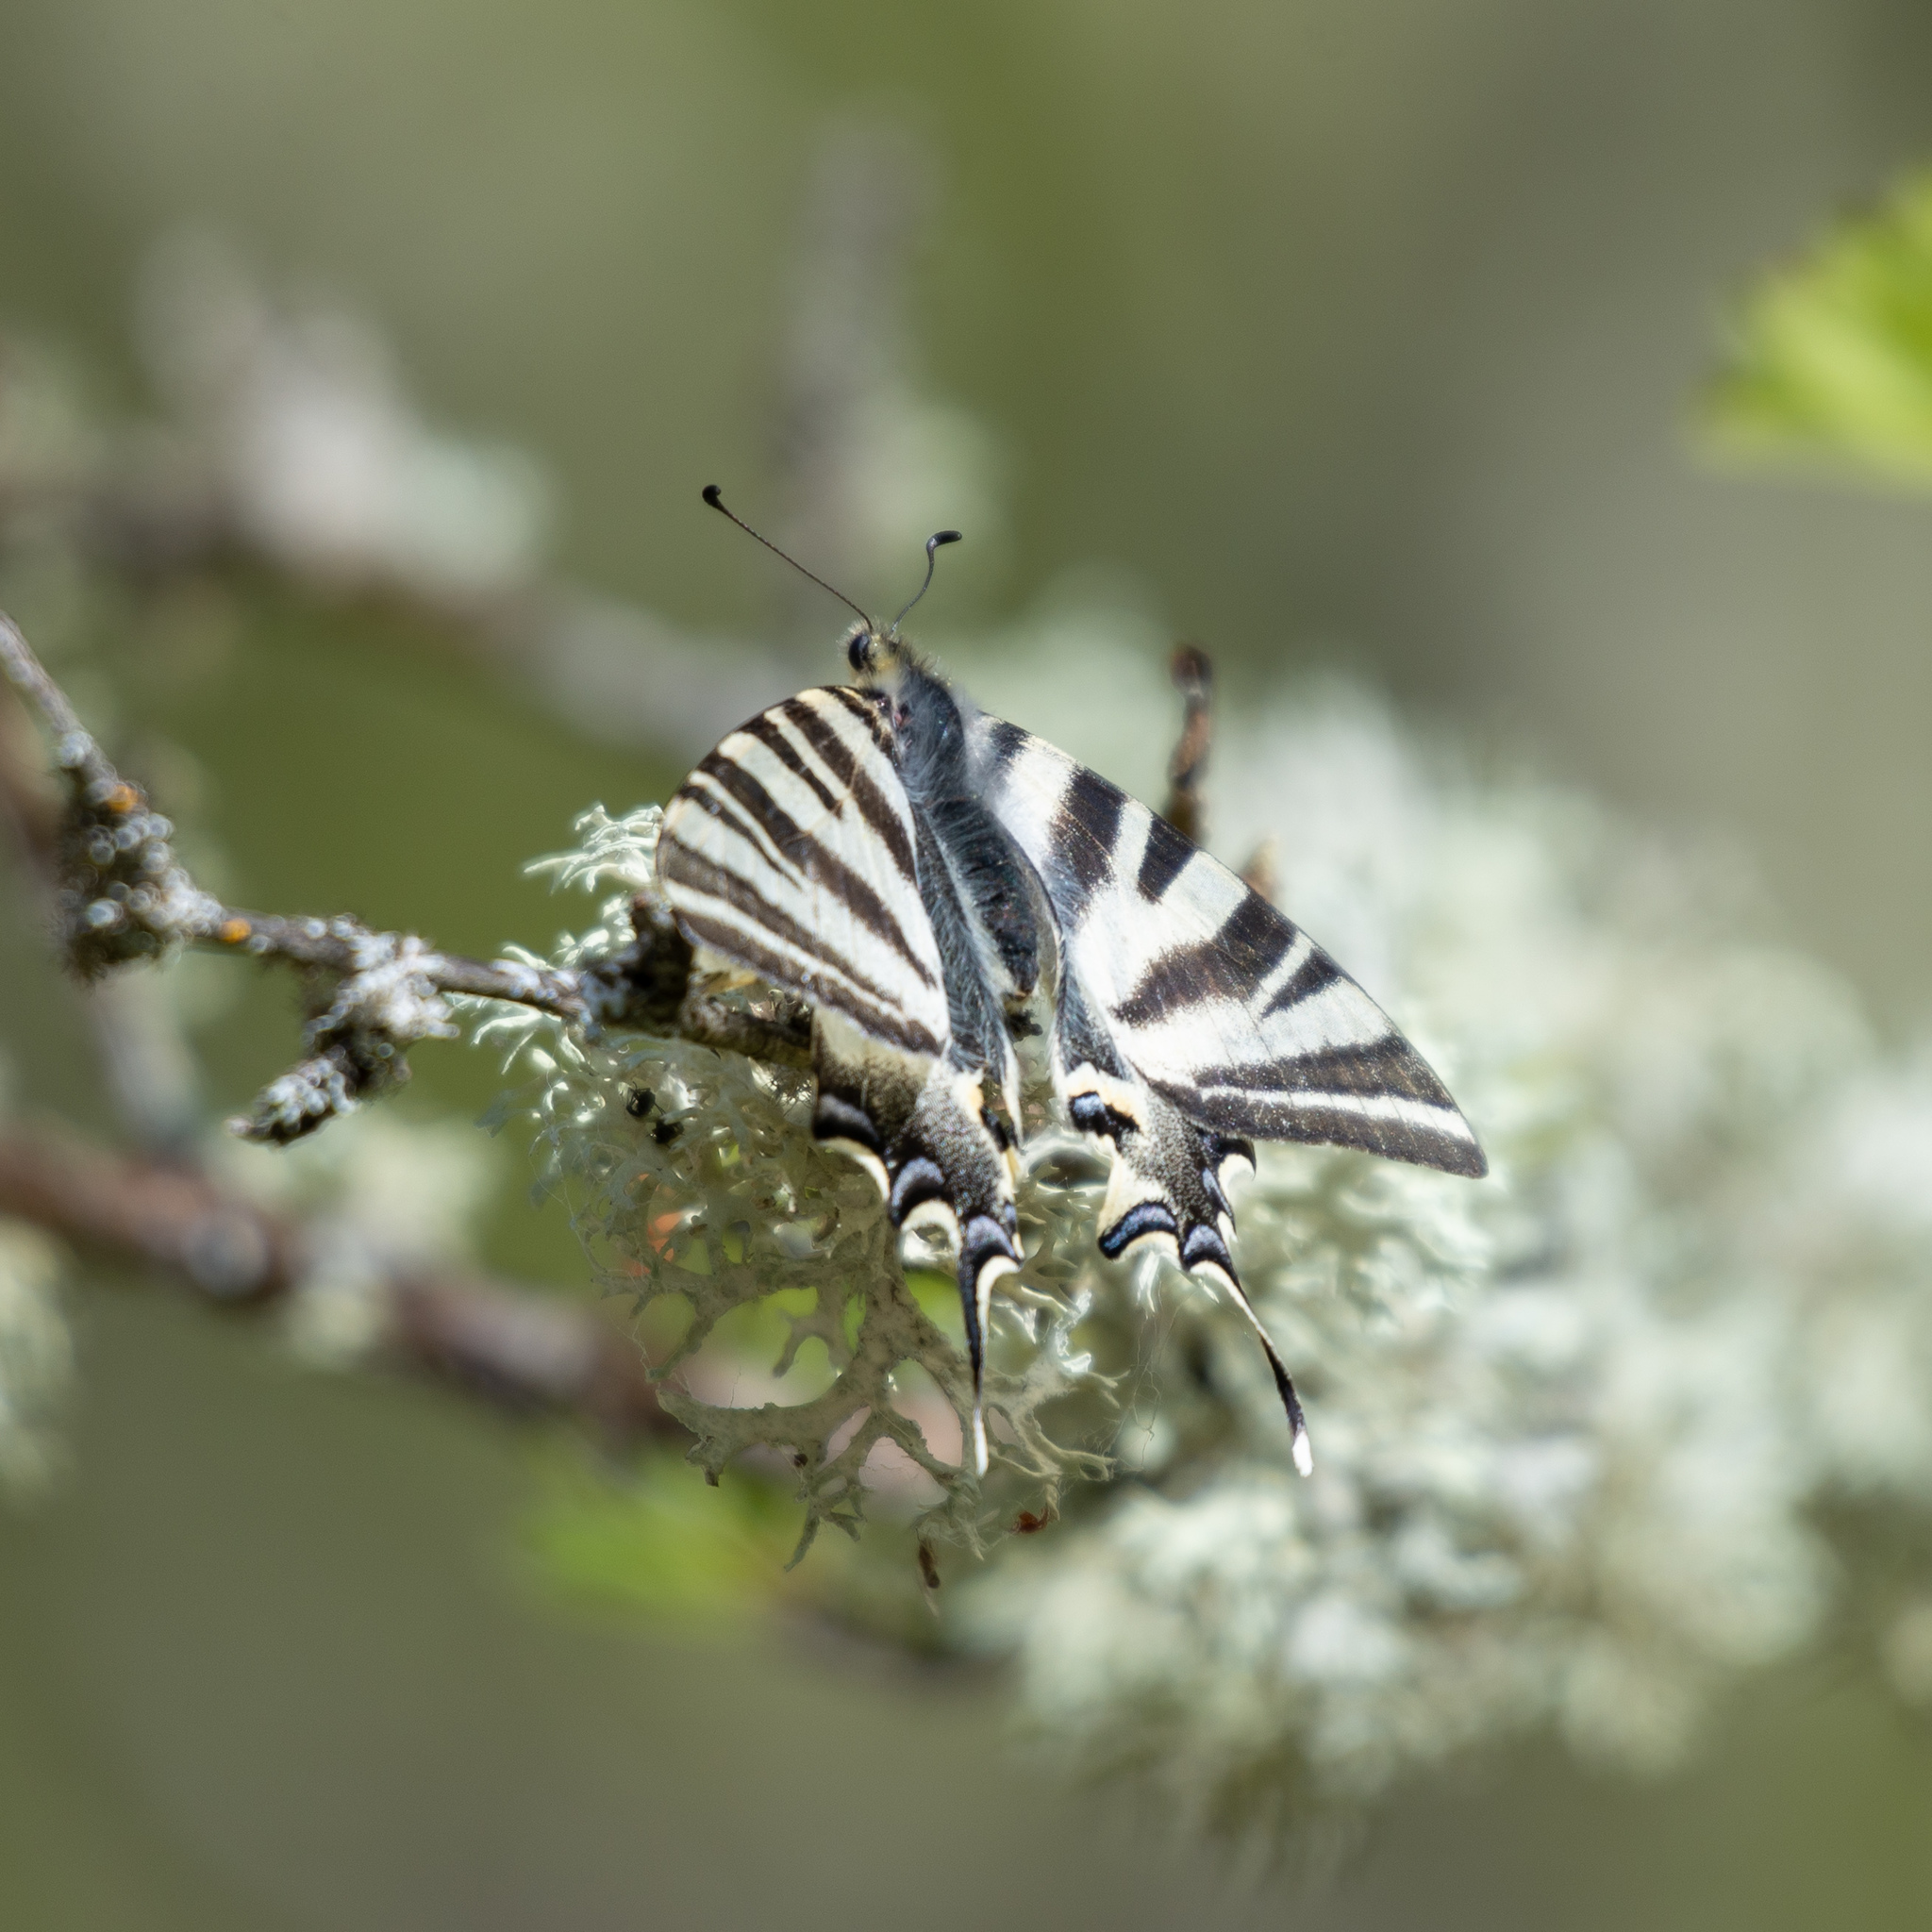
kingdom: Animalia
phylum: Arthropoda
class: Insecta
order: Lepidoptera
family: Papilionidae
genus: Iphiclides
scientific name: Iphiclides feisthamelii
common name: Iberian scarce swallowtail
